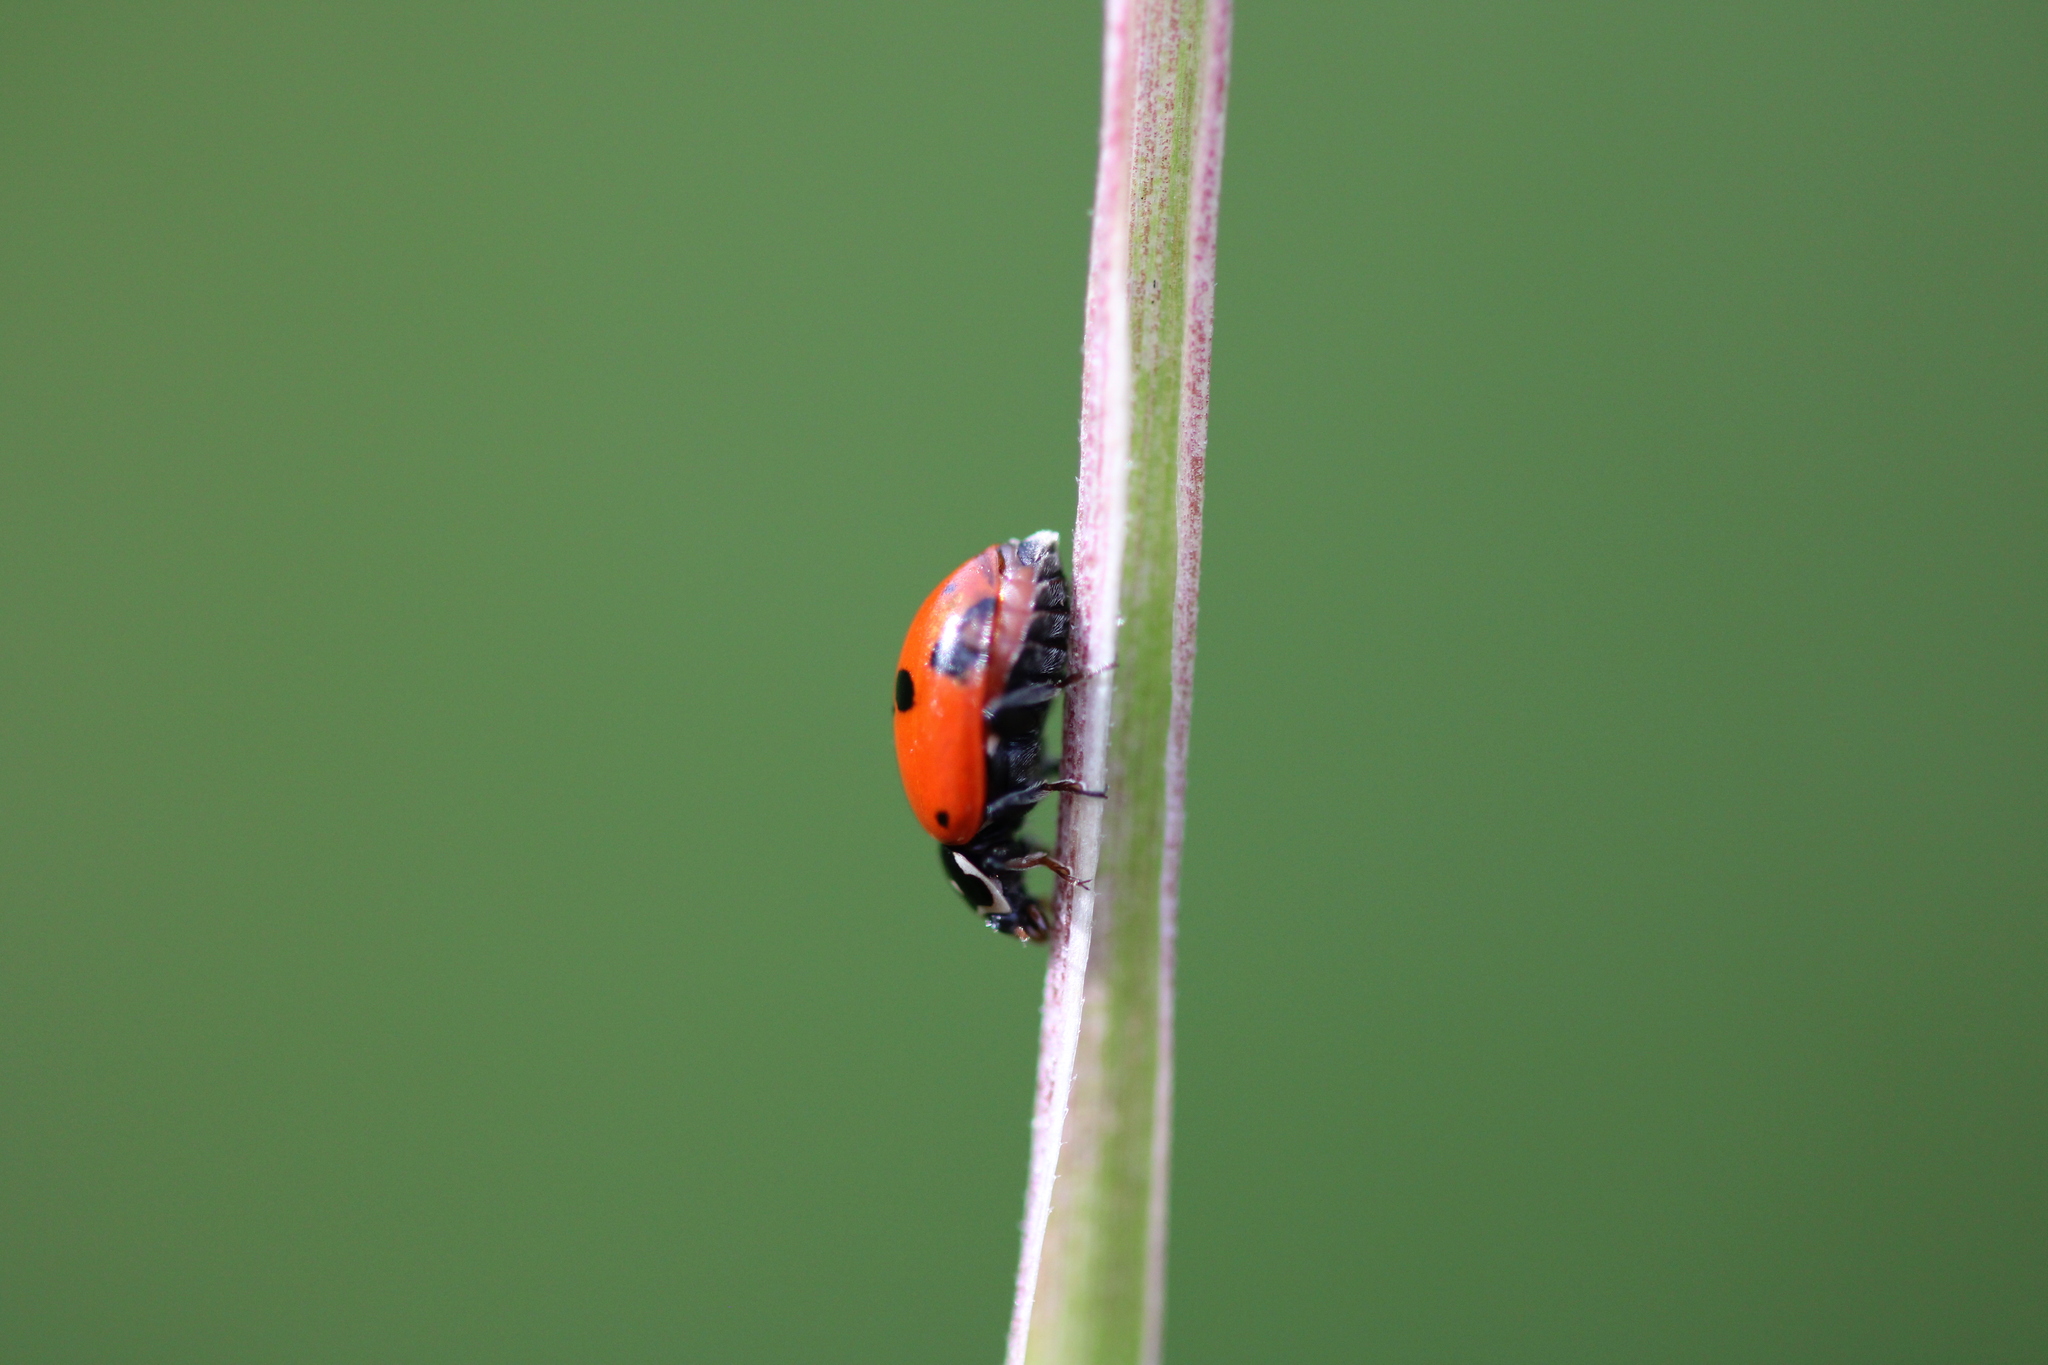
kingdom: Animalia
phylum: Arthropoda
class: Insecta
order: Coleoptera
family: Coccinellidae
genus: Hippodamia
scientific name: Hippodamia variegata
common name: Ladybird beetle
